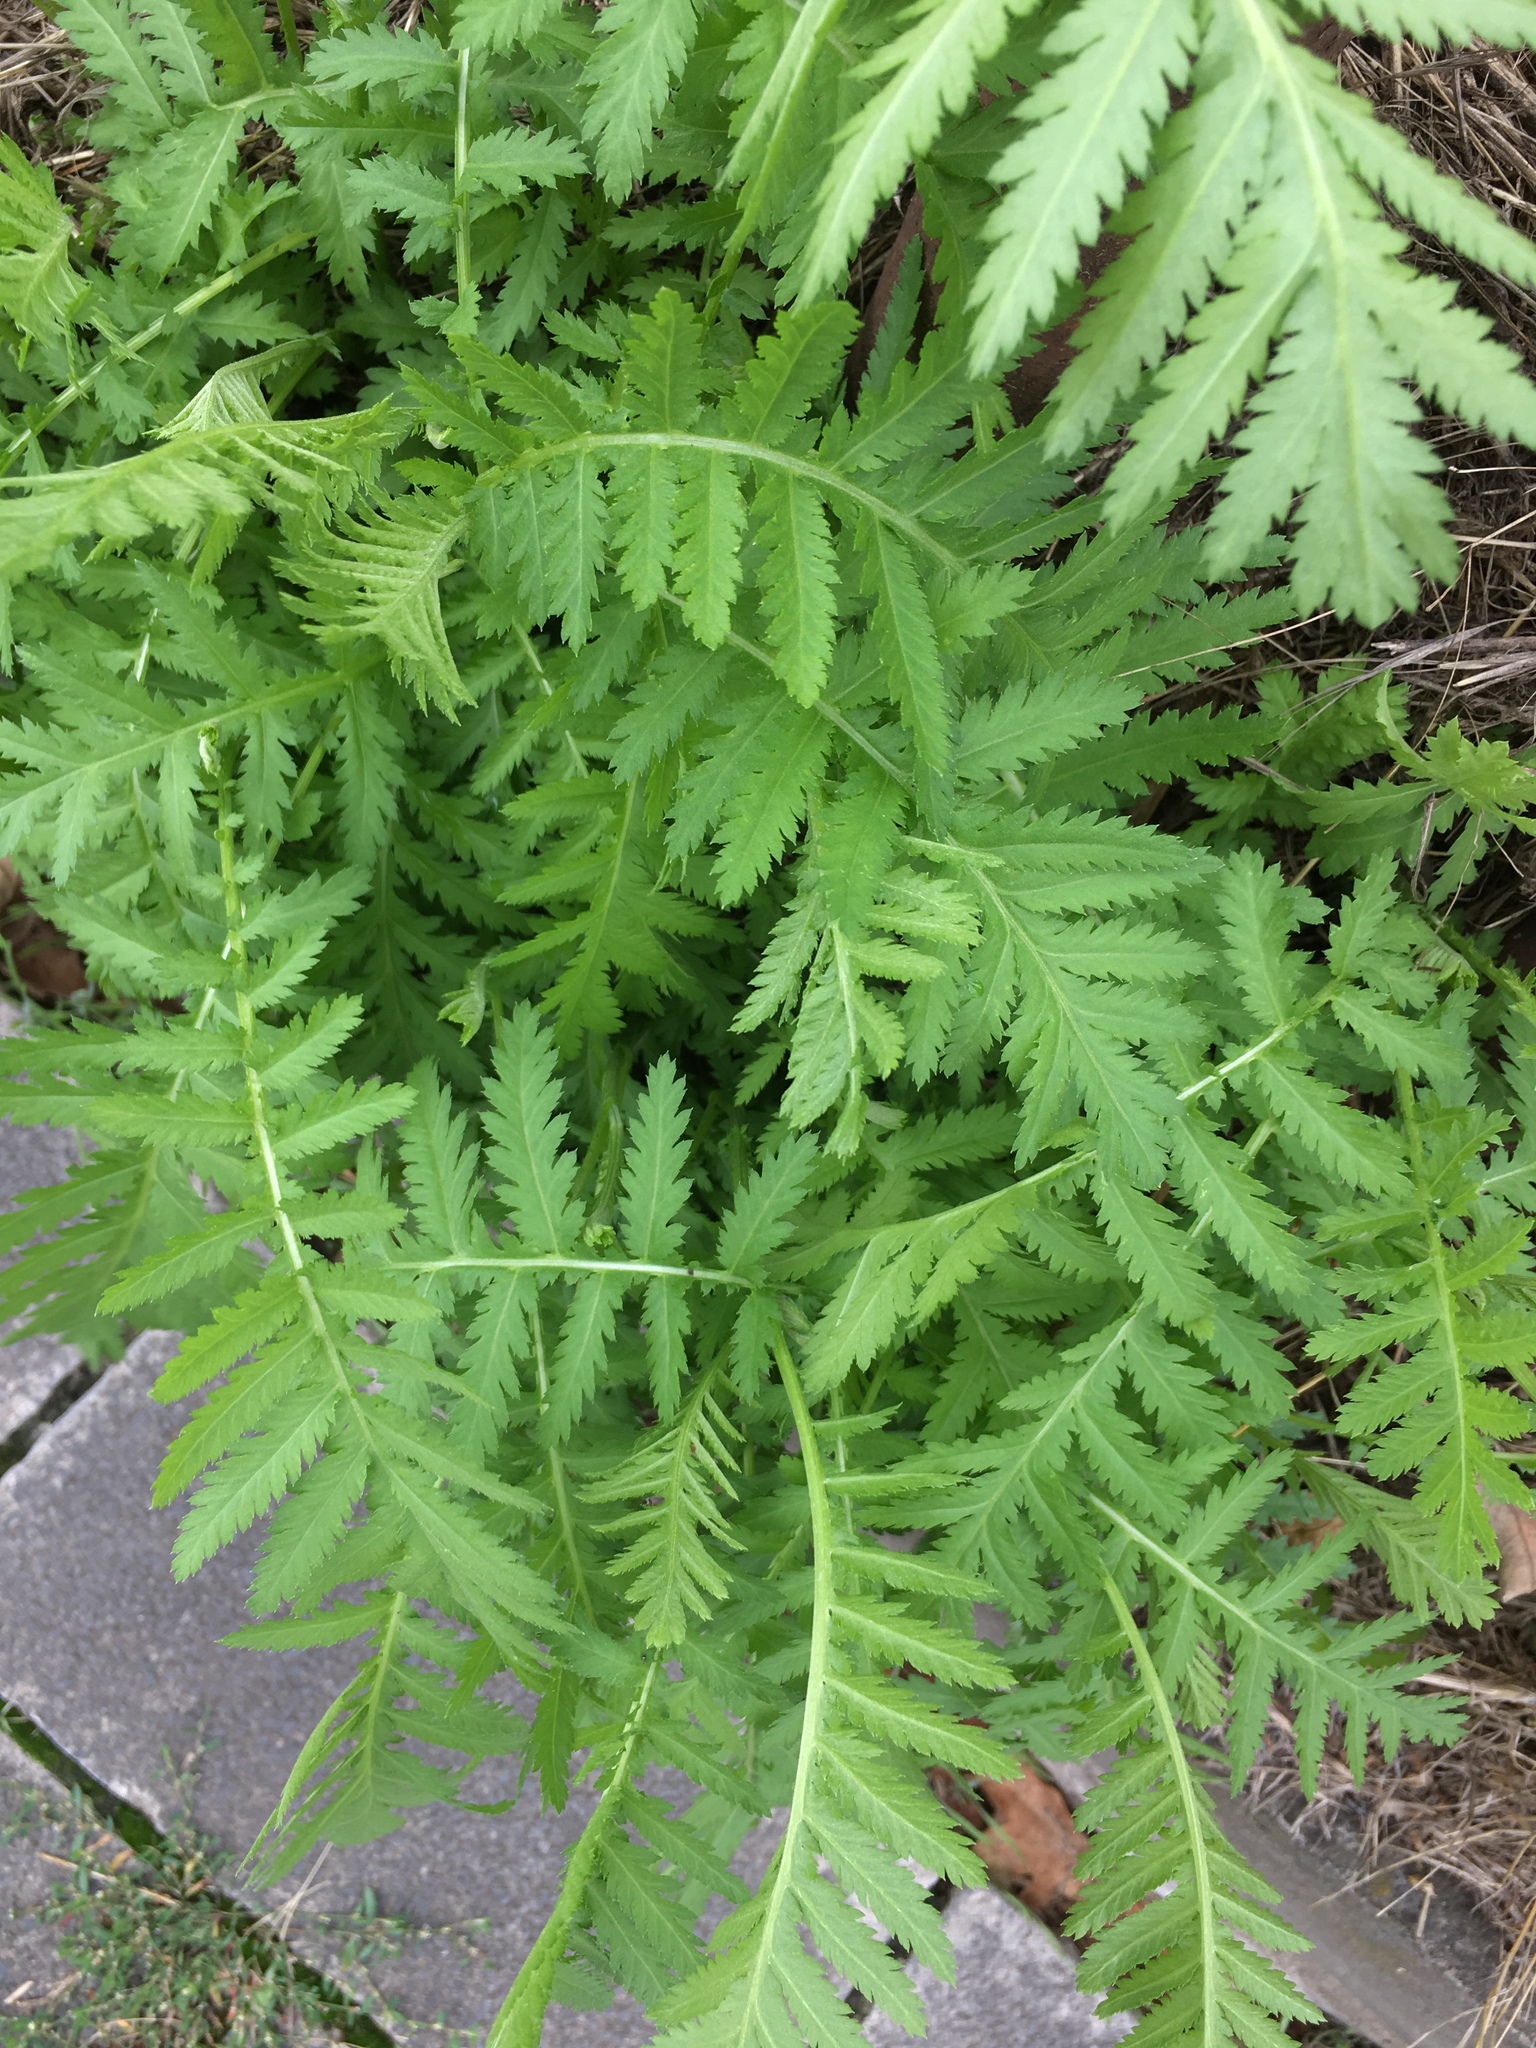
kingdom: Plantae
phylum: Tracheophyta
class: Magnoliopsida
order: Asterales
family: Asteraceae
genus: Tanacetum
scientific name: Tanacetum vulgare
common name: Common tansy
